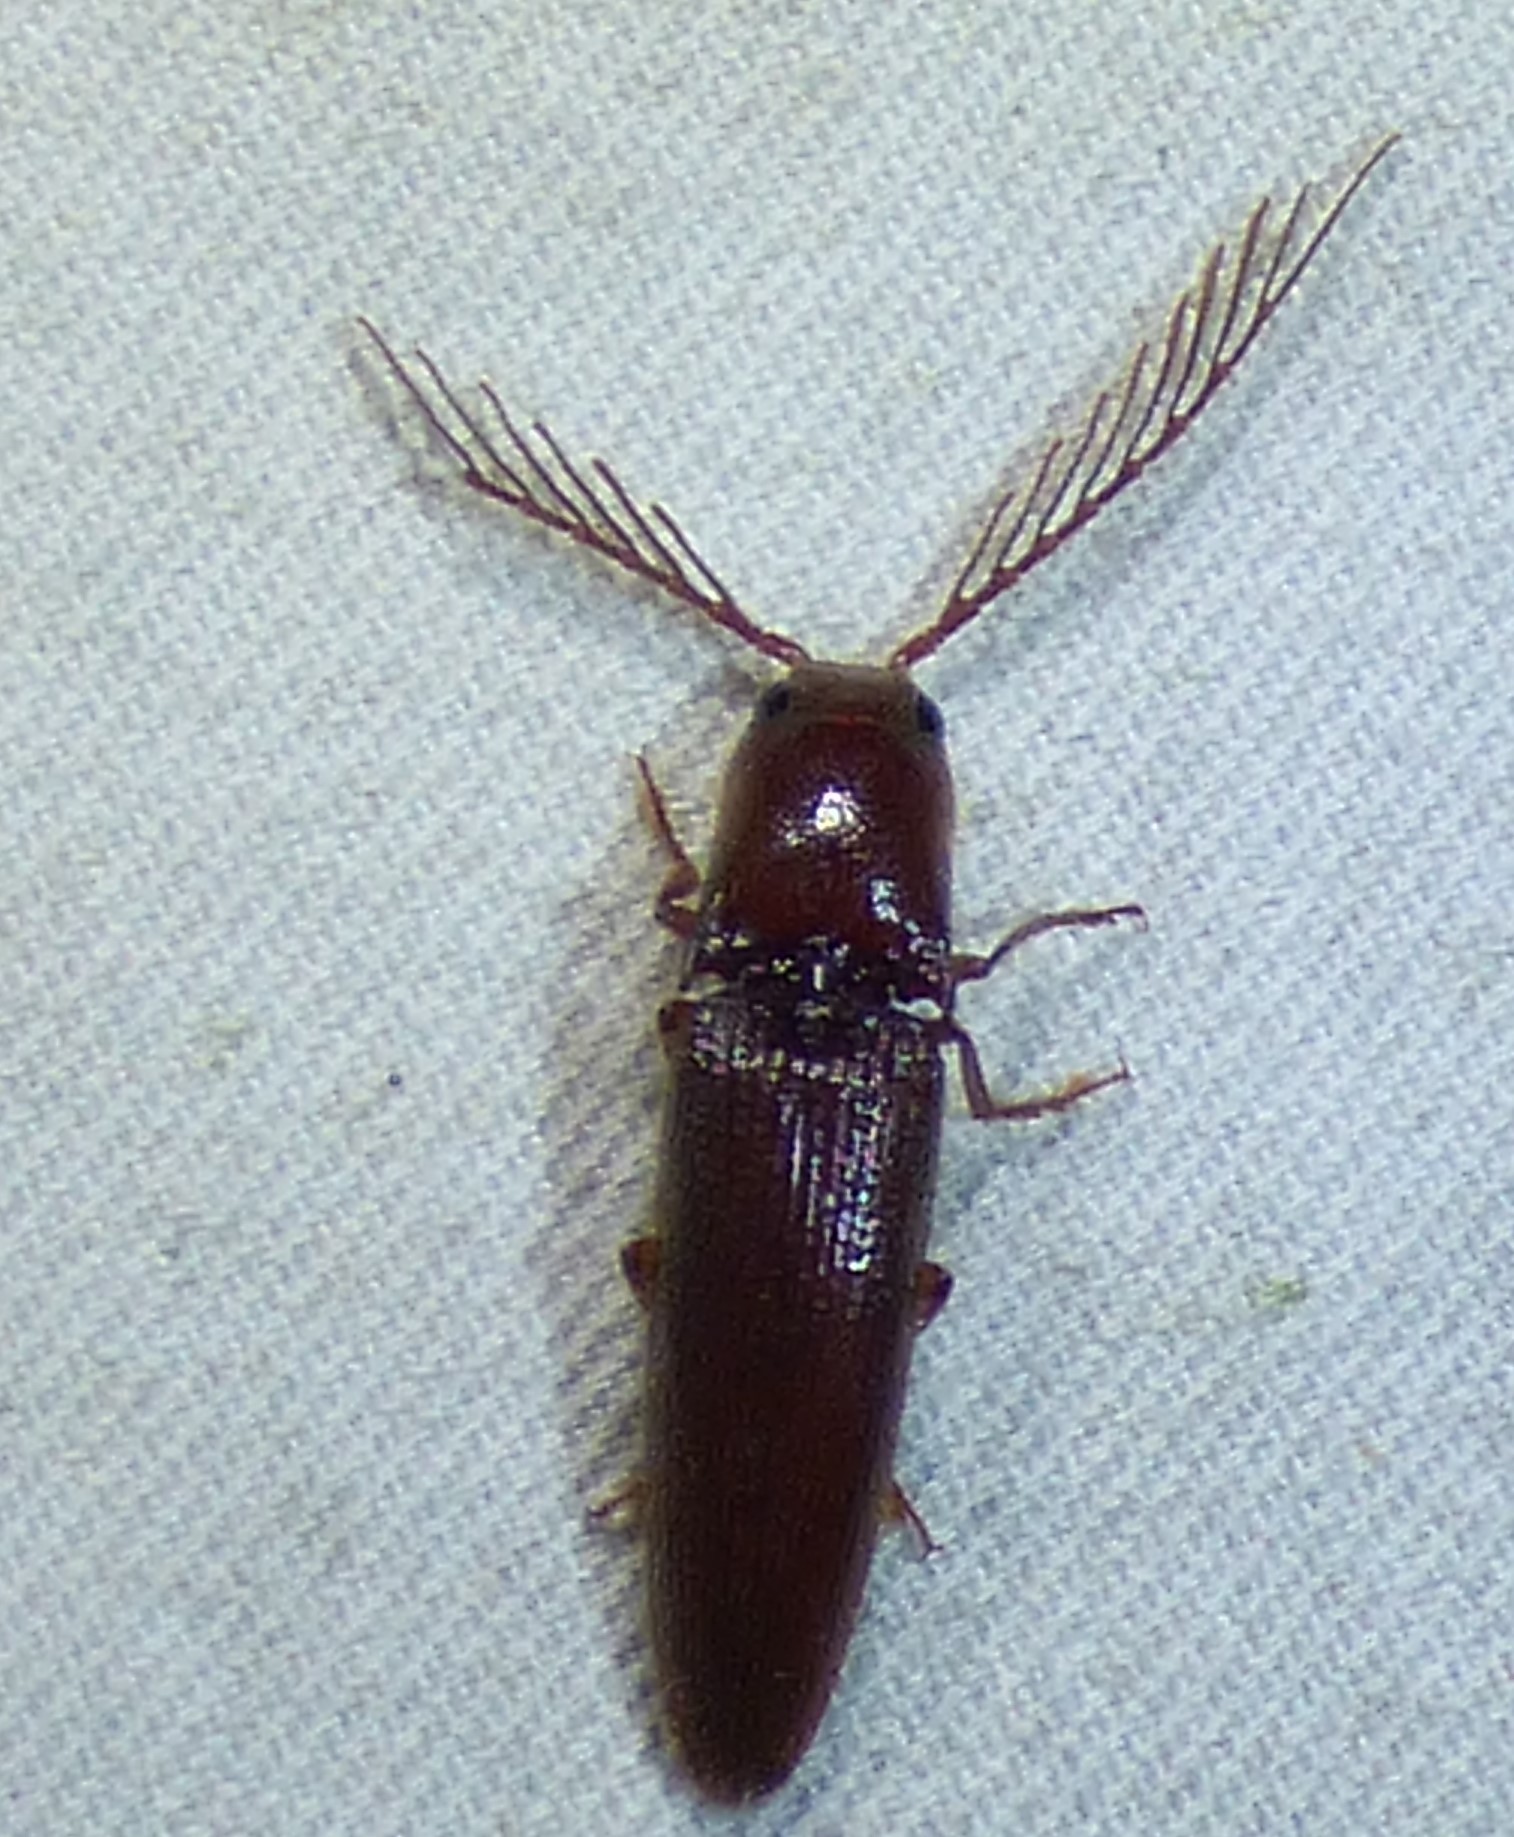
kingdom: Animalia
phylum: Arthropoda
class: Insecta
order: Coleoptera
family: Elateridae
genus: Dicrepidius
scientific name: Dicrepidius palmatus
